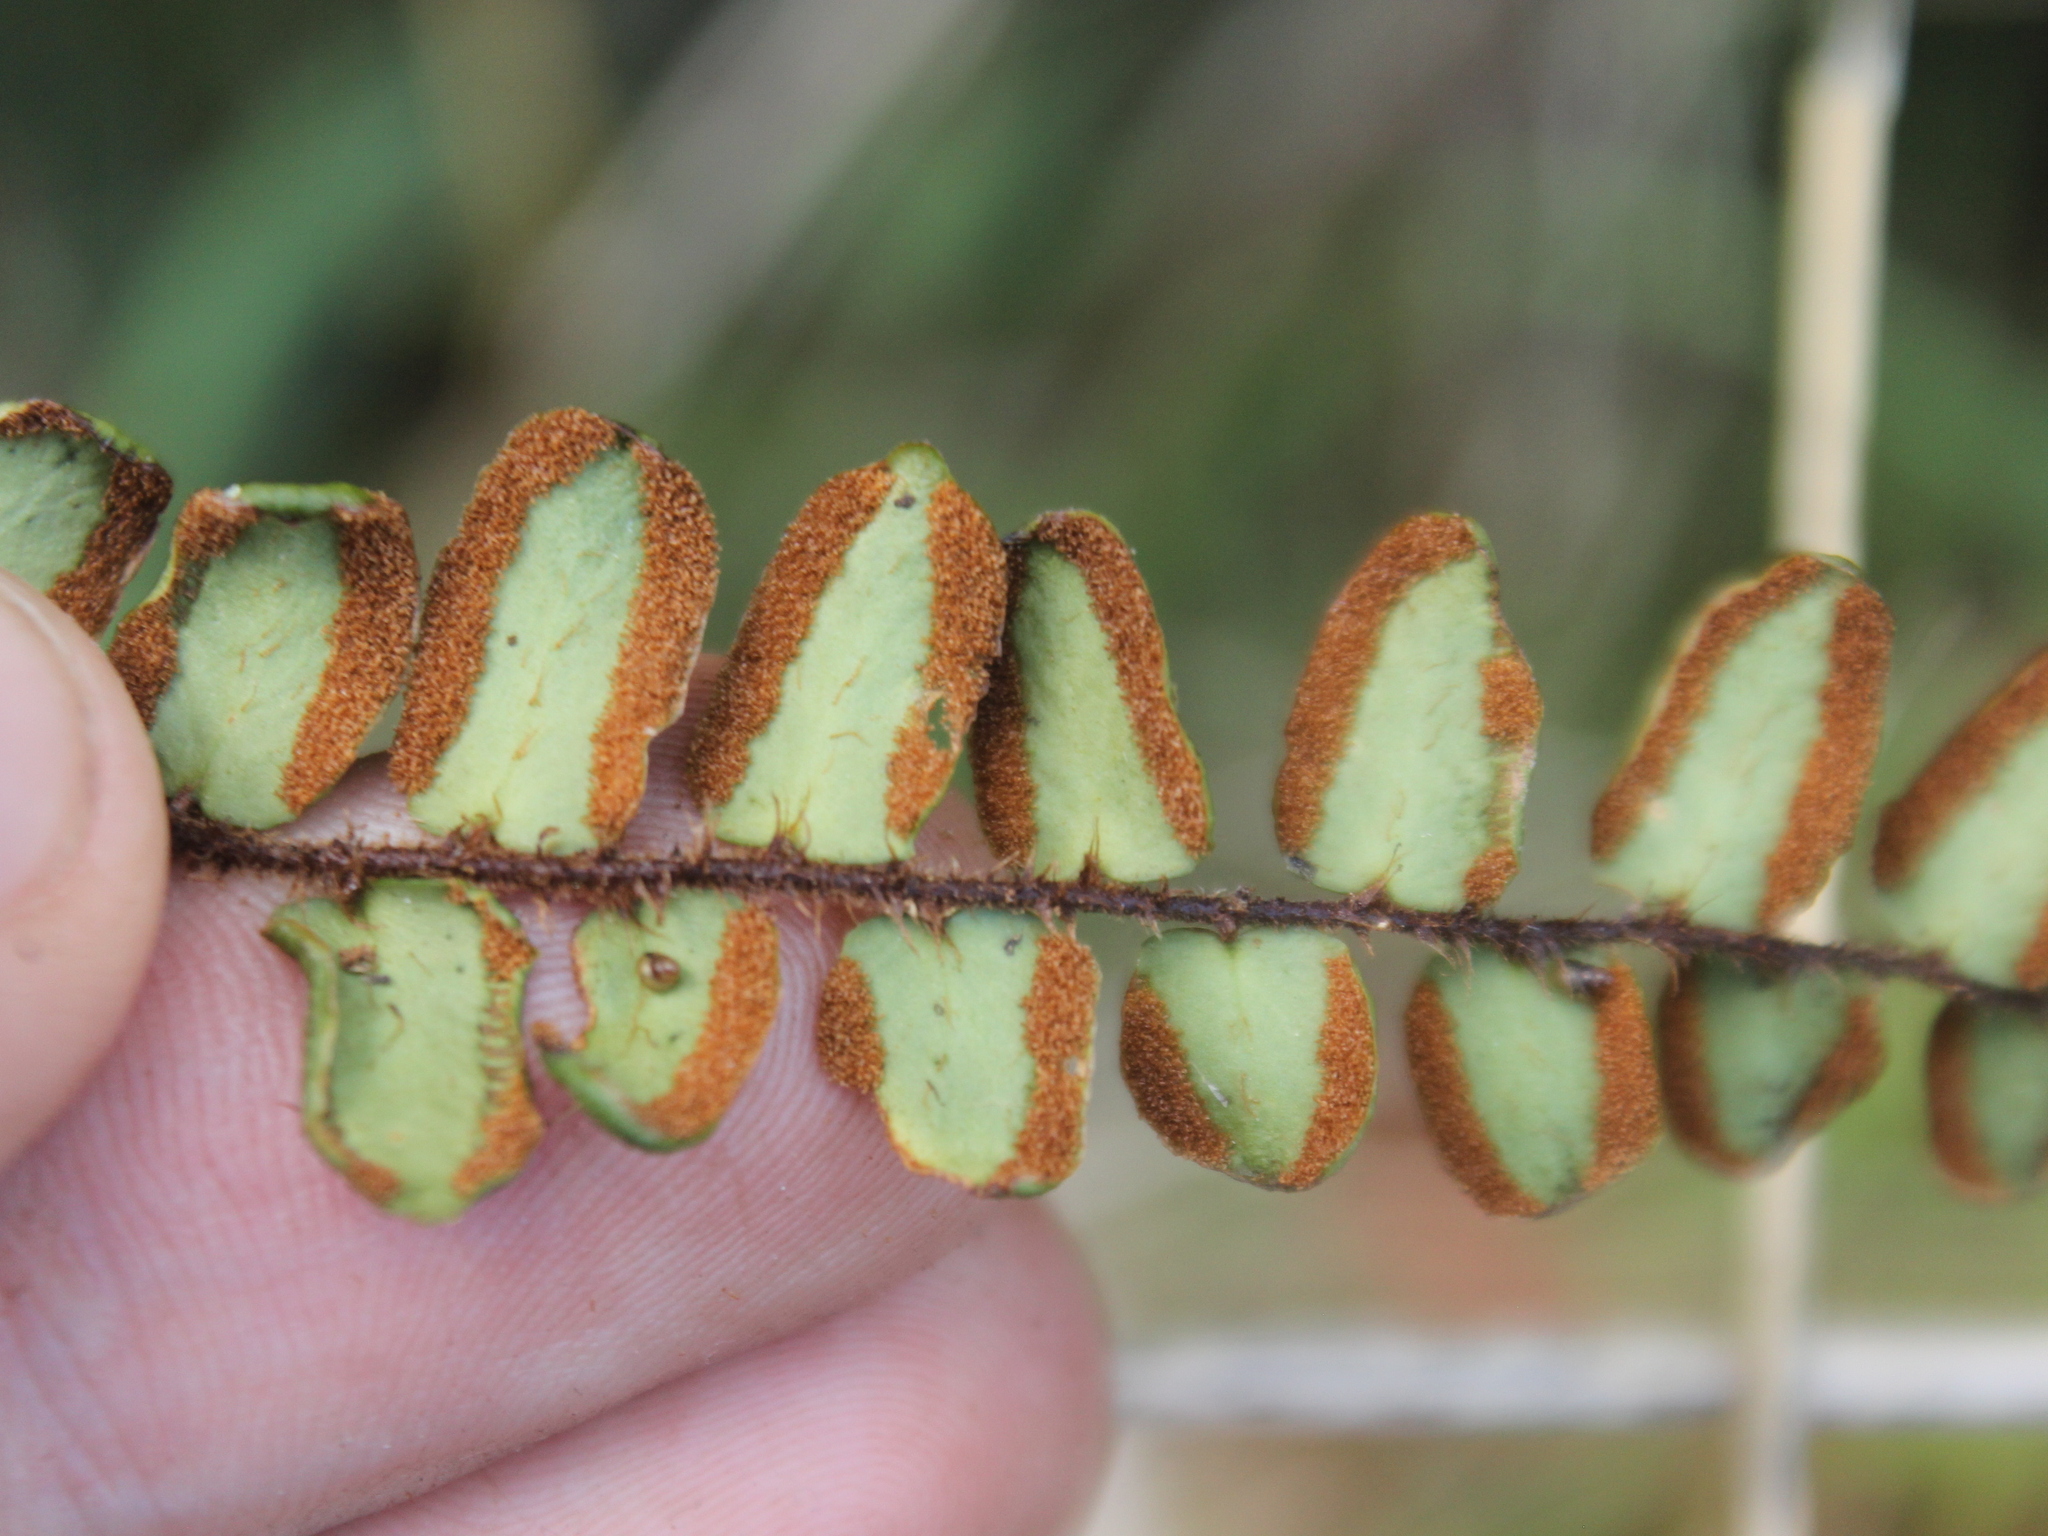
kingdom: Plantae
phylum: Tracheophyta
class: Polypodiopsida
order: Polypodiales
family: Pteridaceae
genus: Pellaea
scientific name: Pellaea rotundifolia
